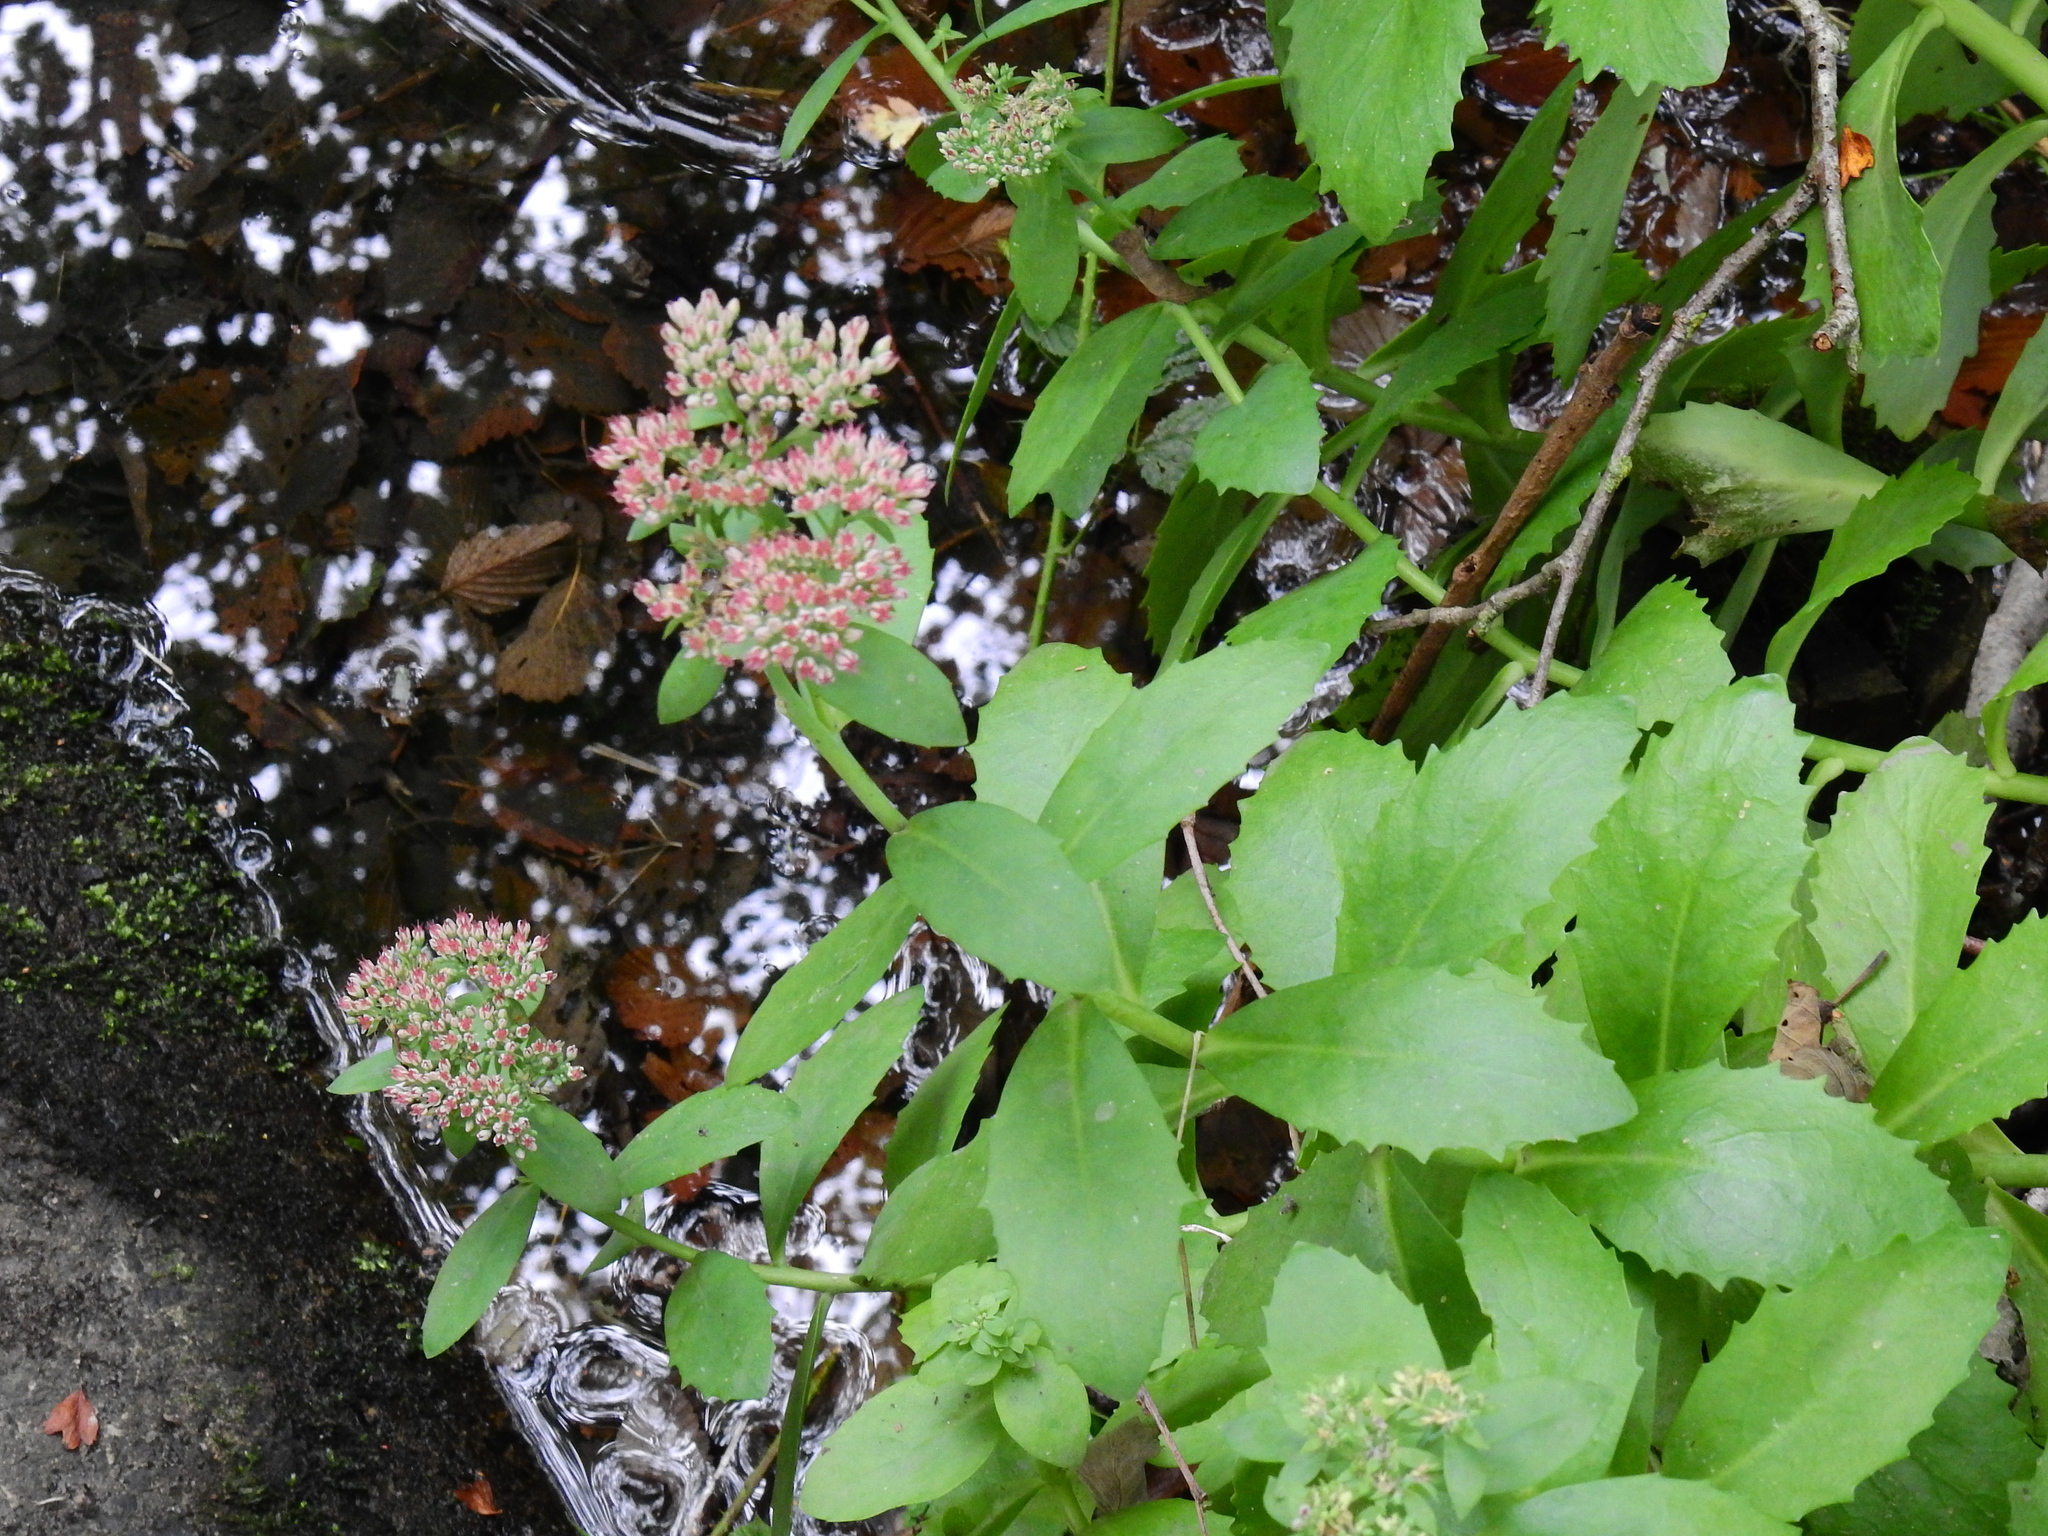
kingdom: Plantae
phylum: Tracheophyta
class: Magnoliopsida
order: Saxifragales
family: Crassulaceae
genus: Hylotelephium
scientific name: Hylotelephium
